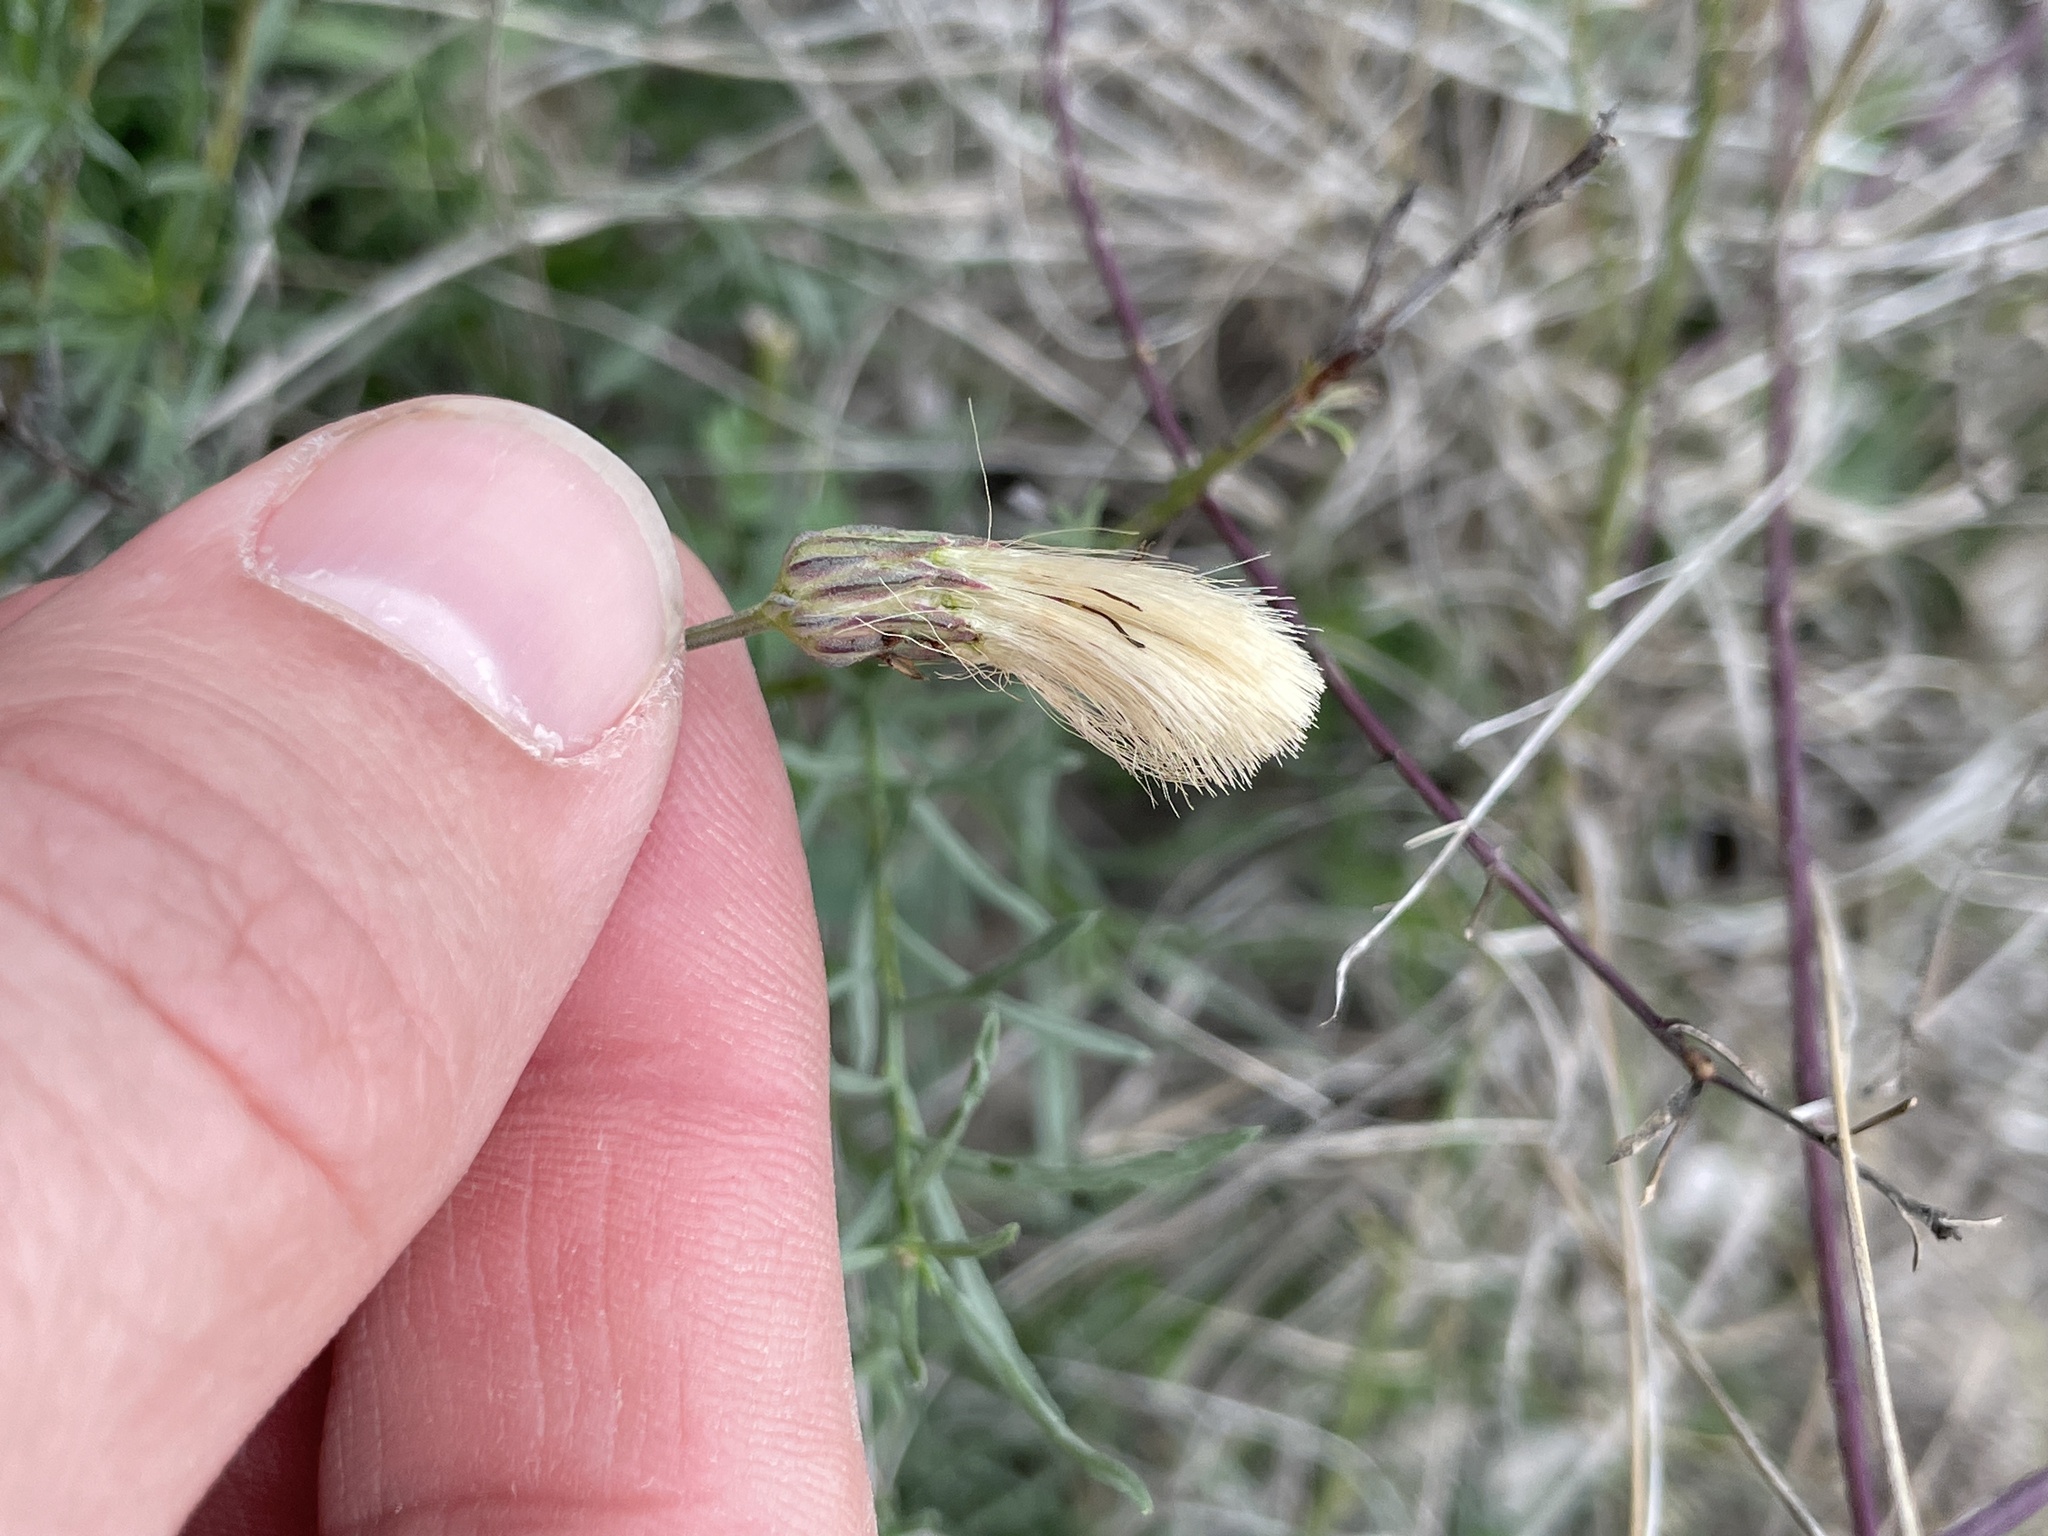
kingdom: Plantae
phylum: Tracheophyta
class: Magnoliopsida
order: Asterales
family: Asteraceae
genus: Baccharis
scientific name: Baccharis texana
